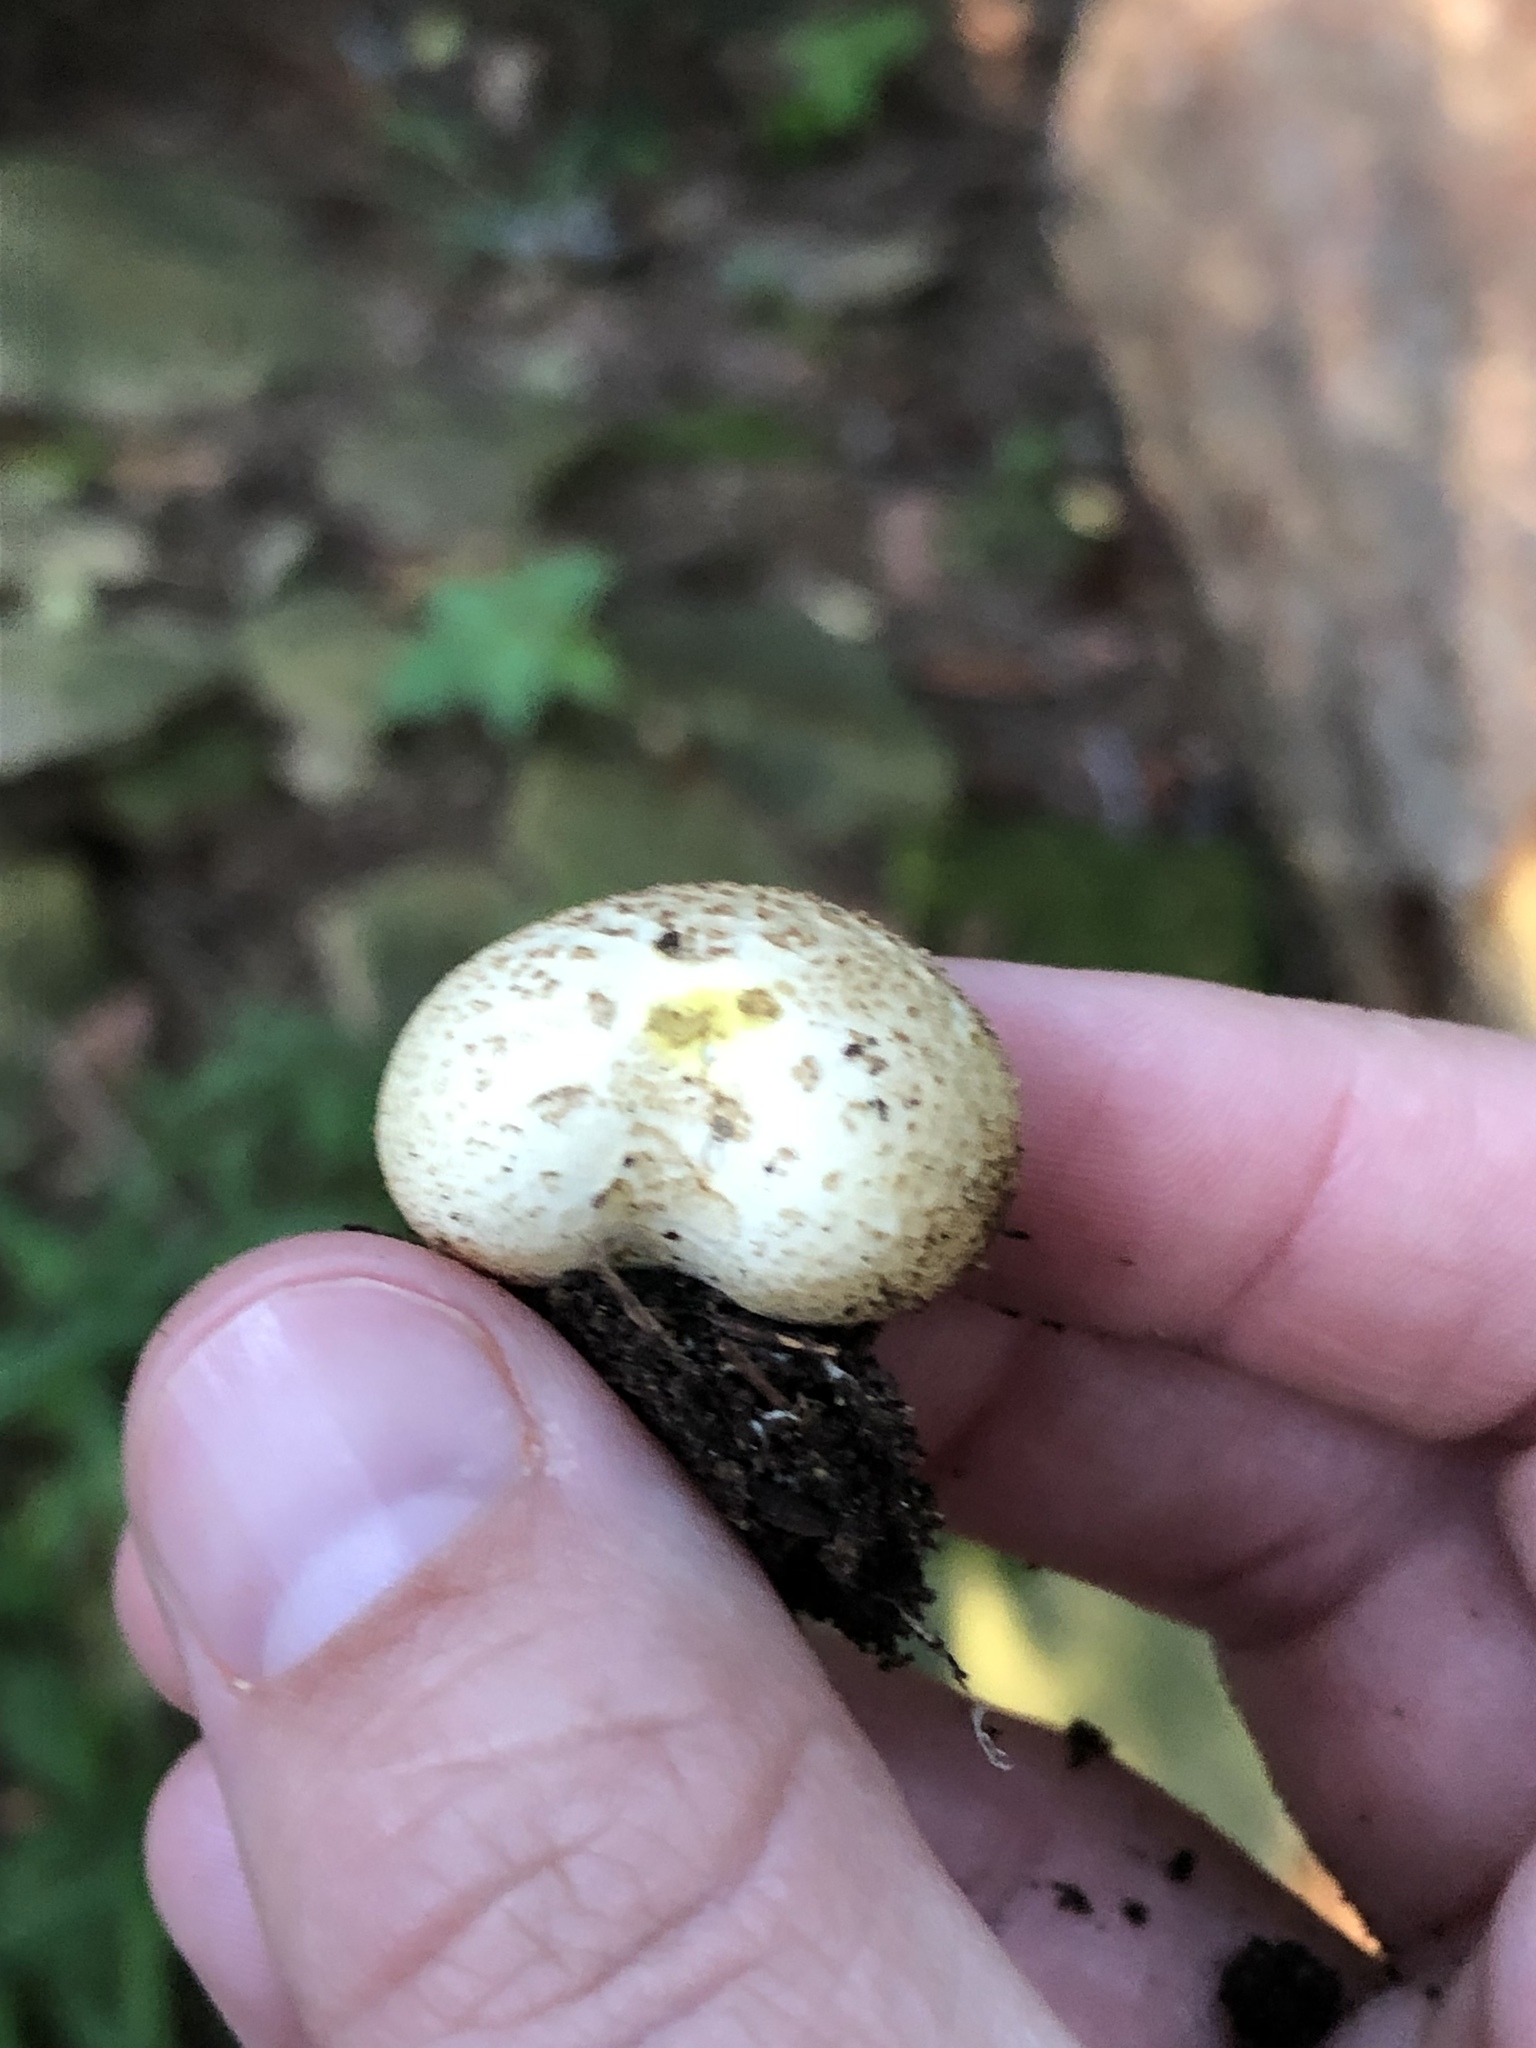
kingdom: Fungi
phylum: Basidiomycota
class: Agaricomycetes
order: Boletales
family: Sclerodermataceae
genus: Scleroderma
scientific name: Scleroderma citrinum
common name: Common earthball
